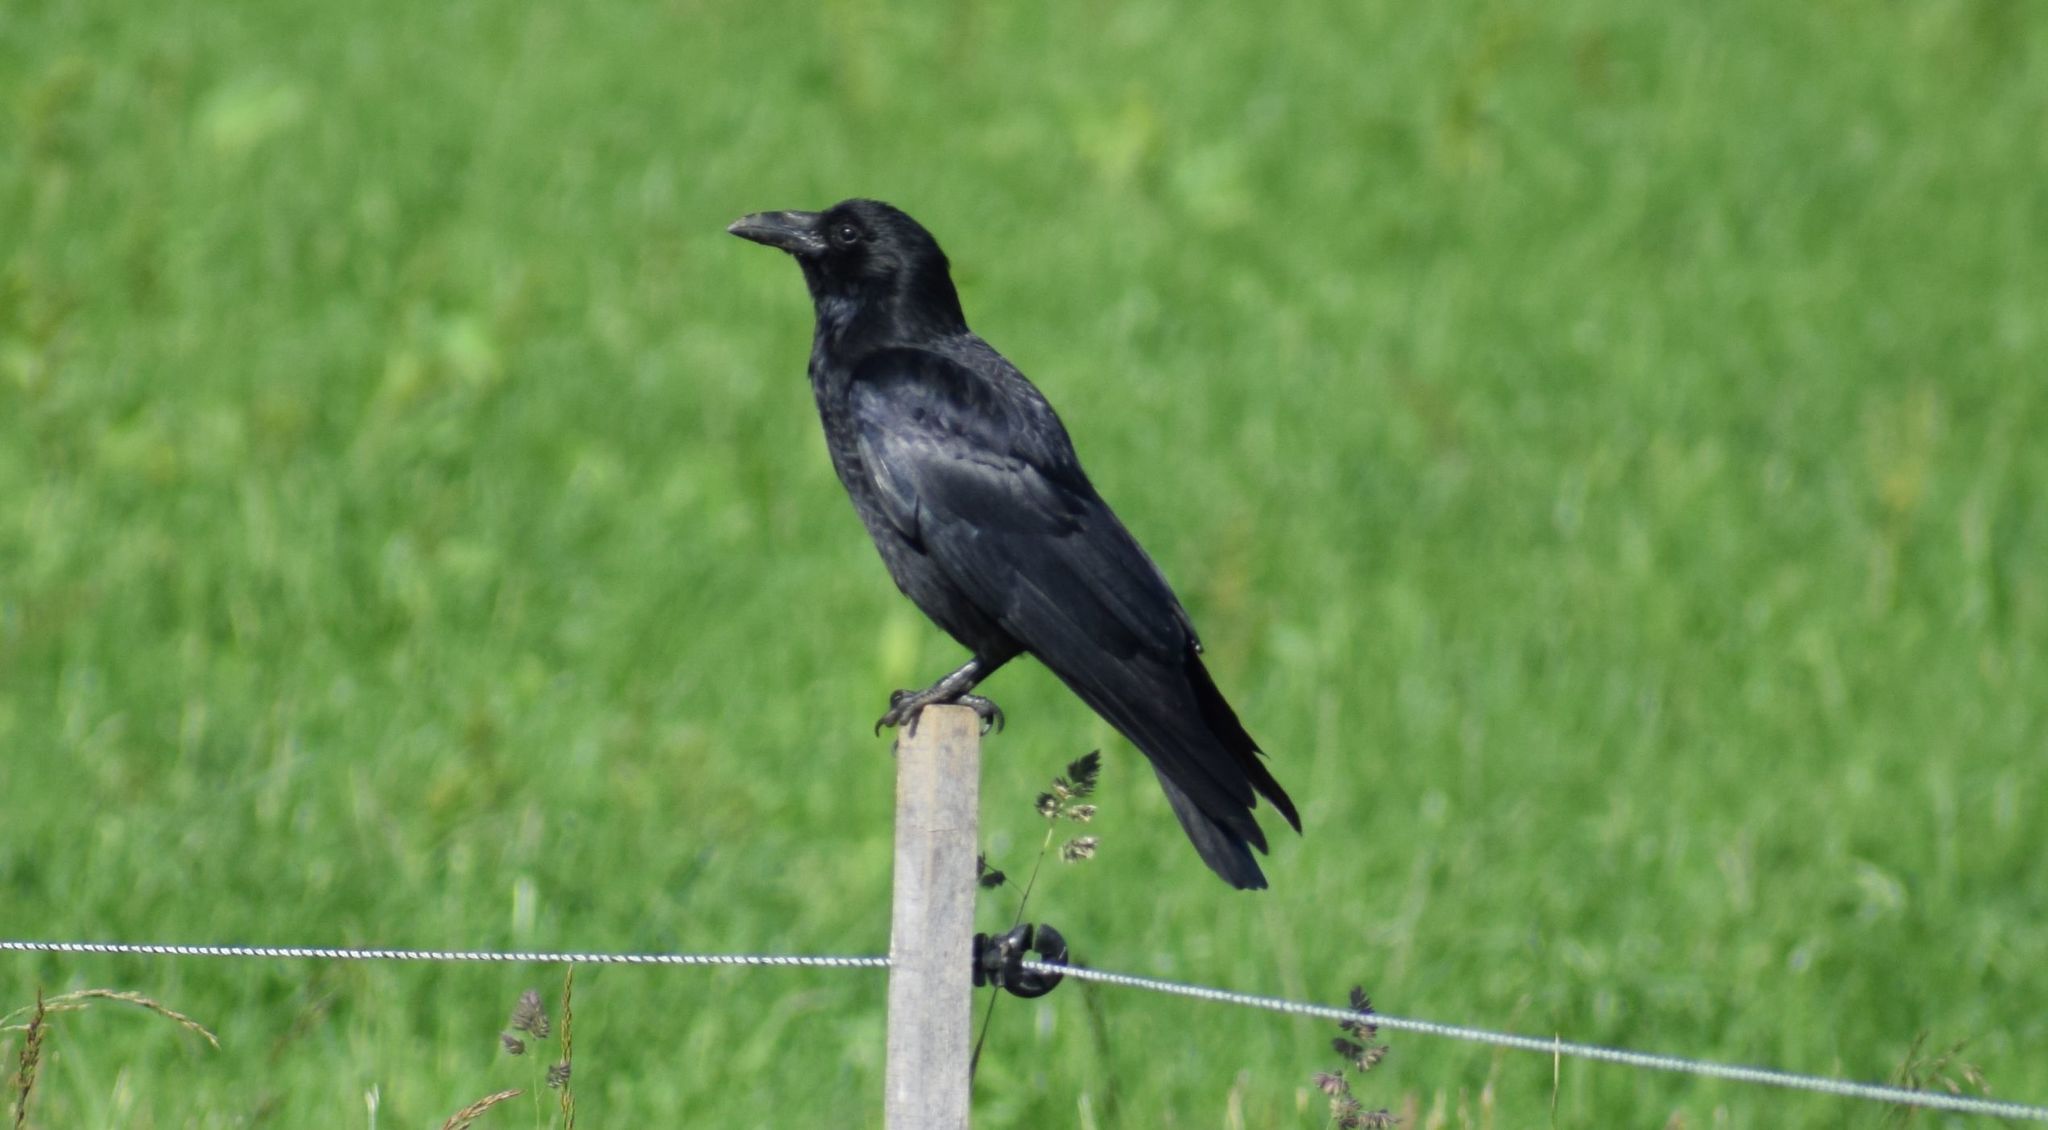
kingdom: Animalia
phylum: Chordata
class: Aves
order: Passeriformes
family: Corvidae
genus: Corvus
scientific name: Corvus corone
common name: Carrion crow
